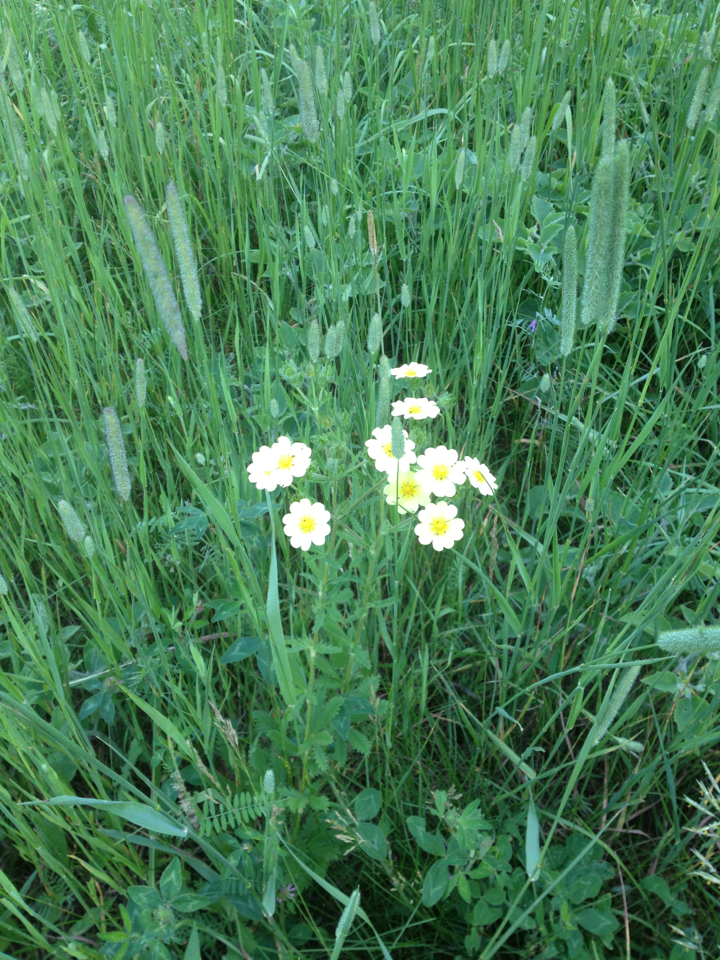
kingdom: Plantae
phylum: Tracheophyta
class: Magnoliopsida
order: Rosales
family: Rosaceae
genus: Potentilla
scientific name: Potentilla recta
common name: Sulphur cinquefoil
